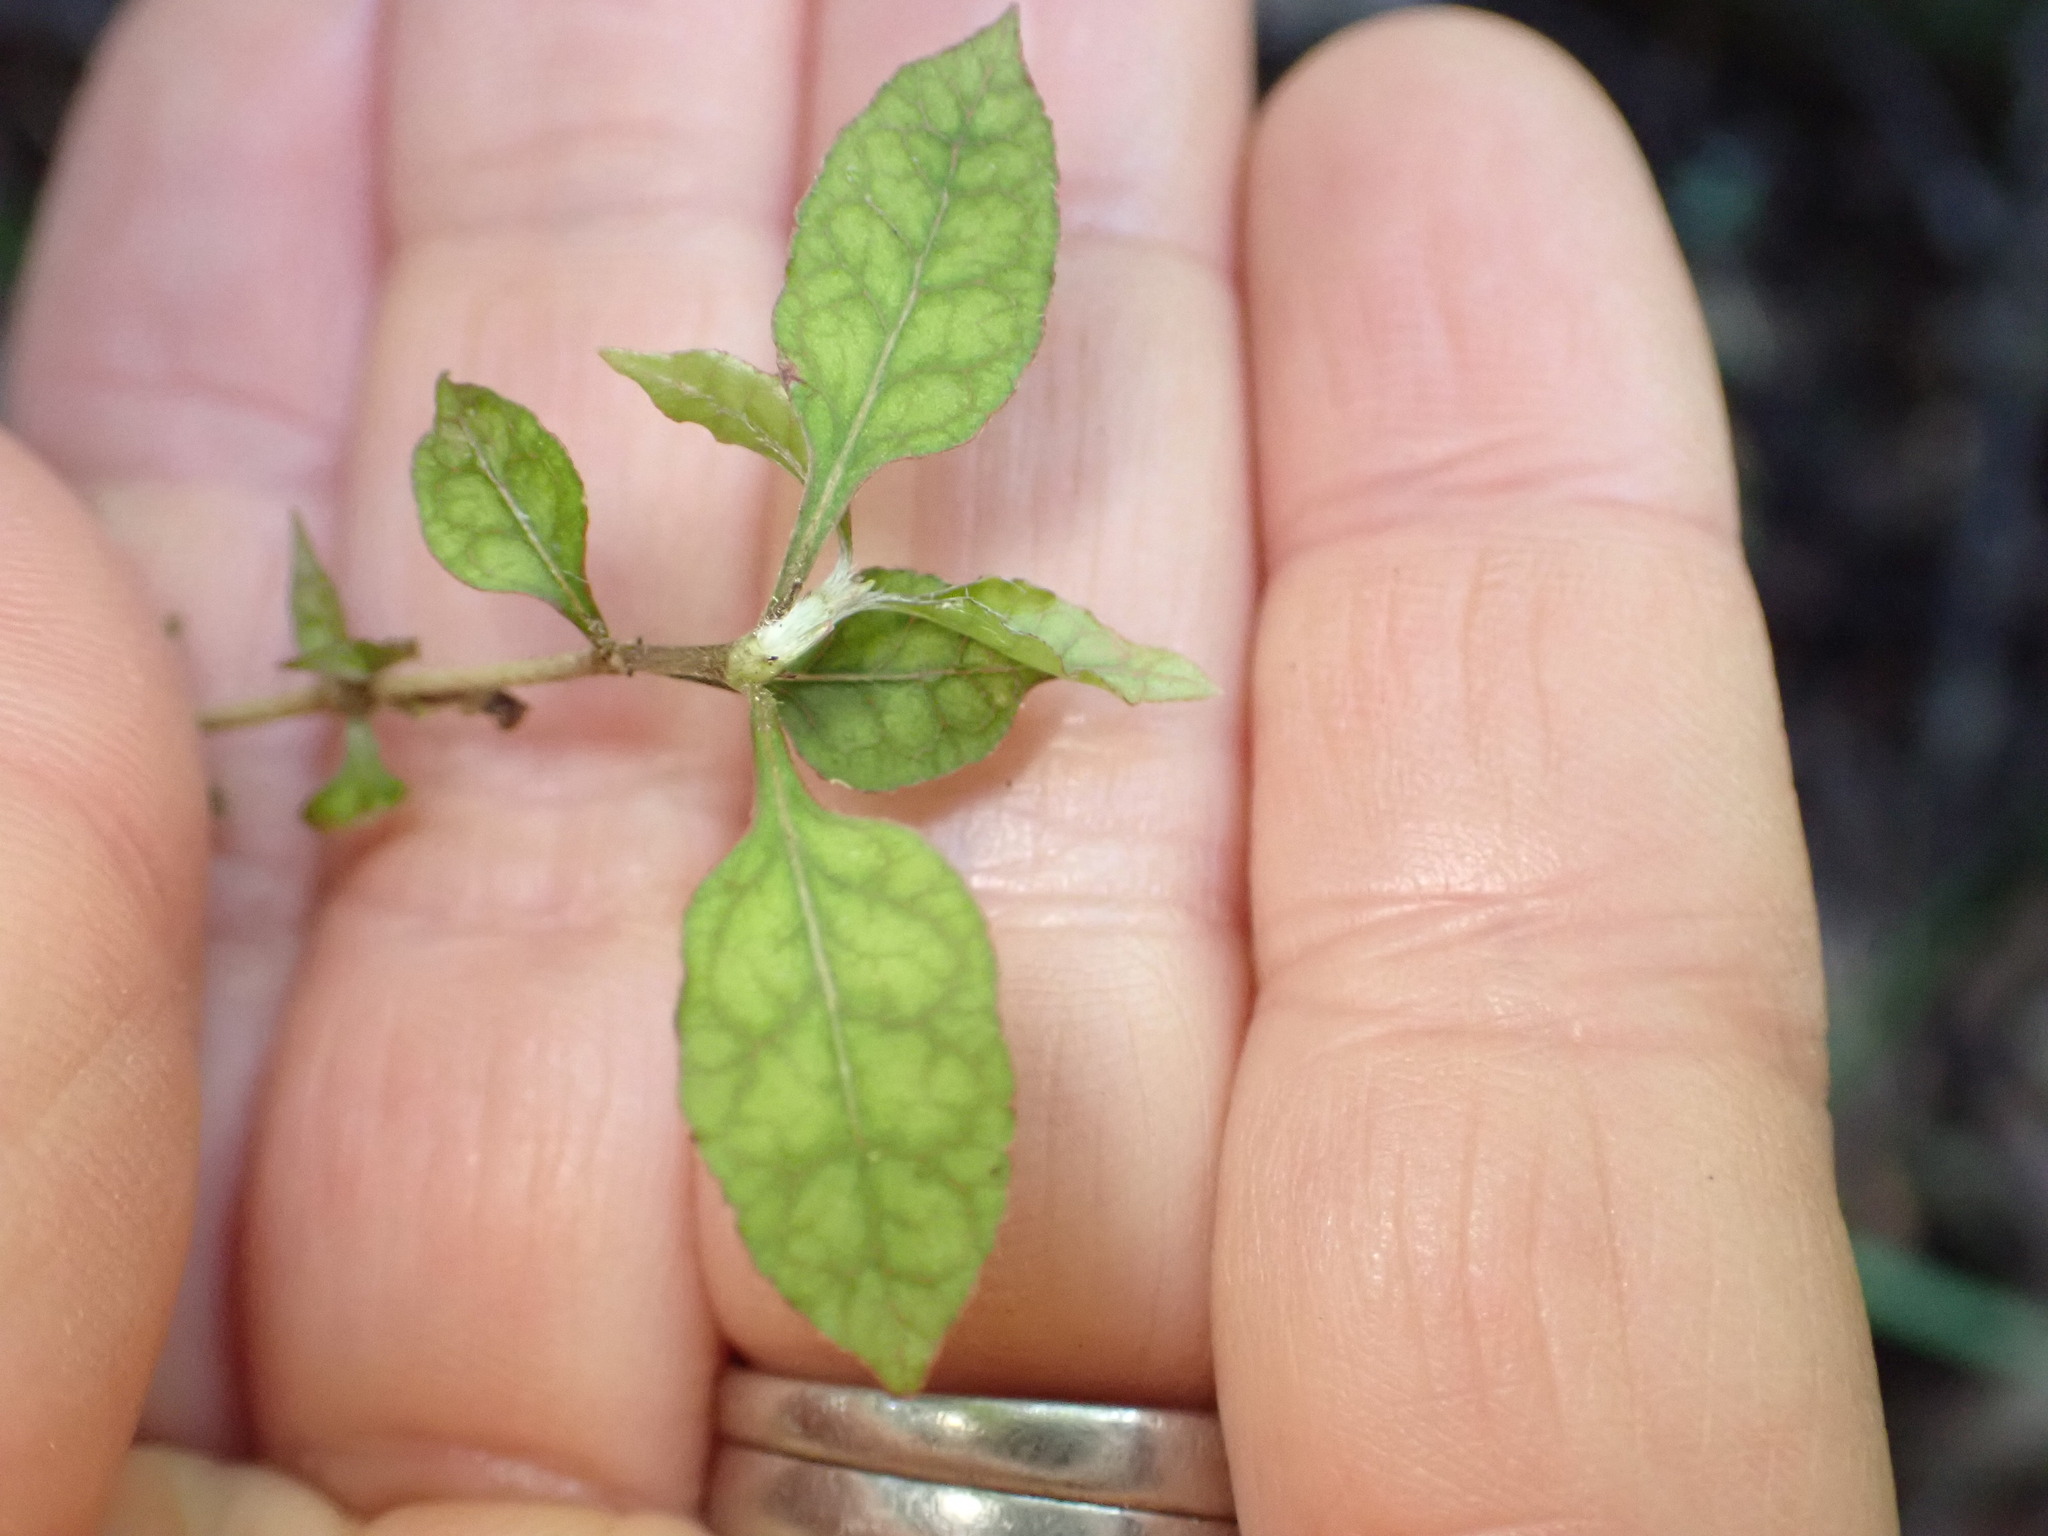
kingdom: Plantae
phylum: Tracheophyta
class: Magnoliopsida
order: Gentianales
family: Rubiaceae
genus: Coprosma
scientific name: Coprosma areolata
